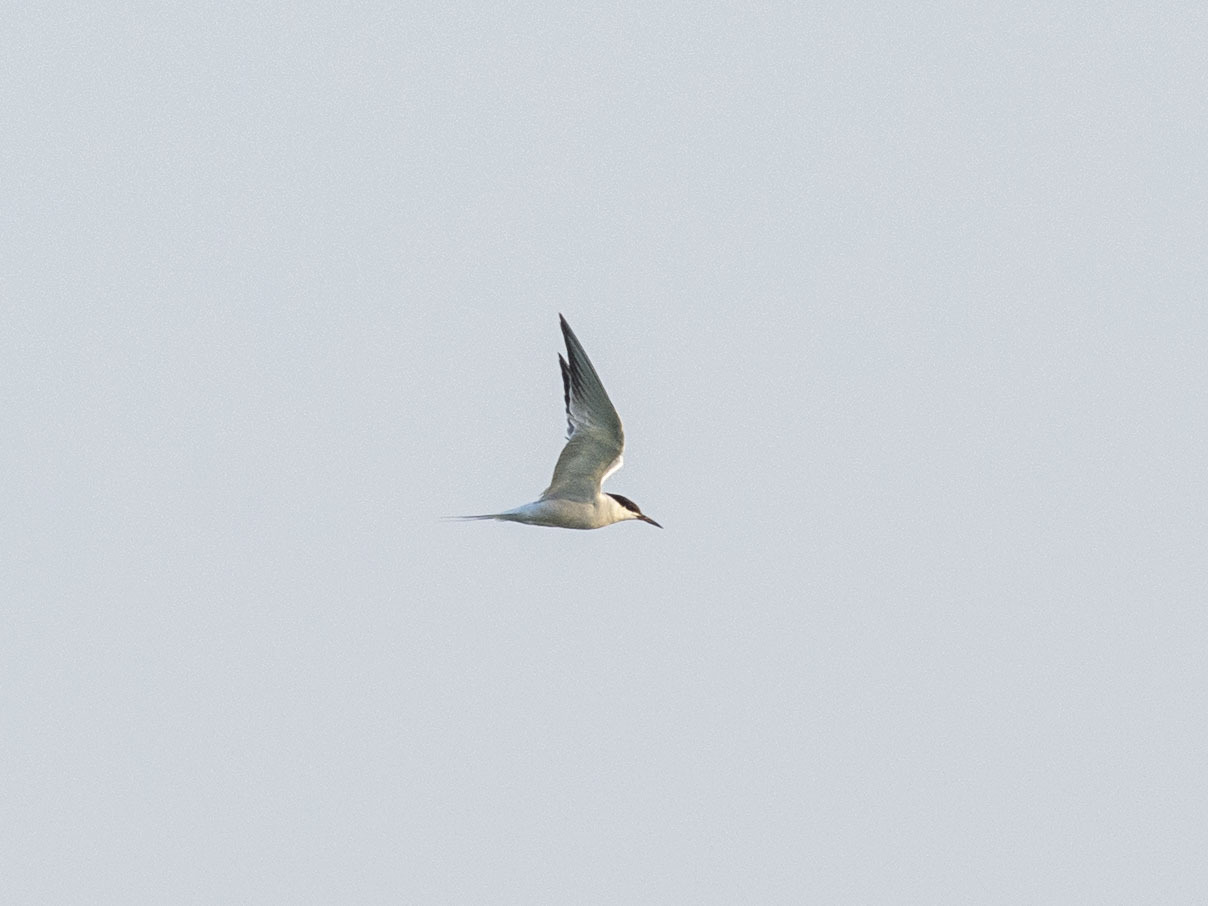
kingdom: Animalia
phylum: Chordata
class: Aves
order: Charadriiformes
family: Laridae
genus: Sterna
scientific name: Sterna hirundo
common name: Common tern
